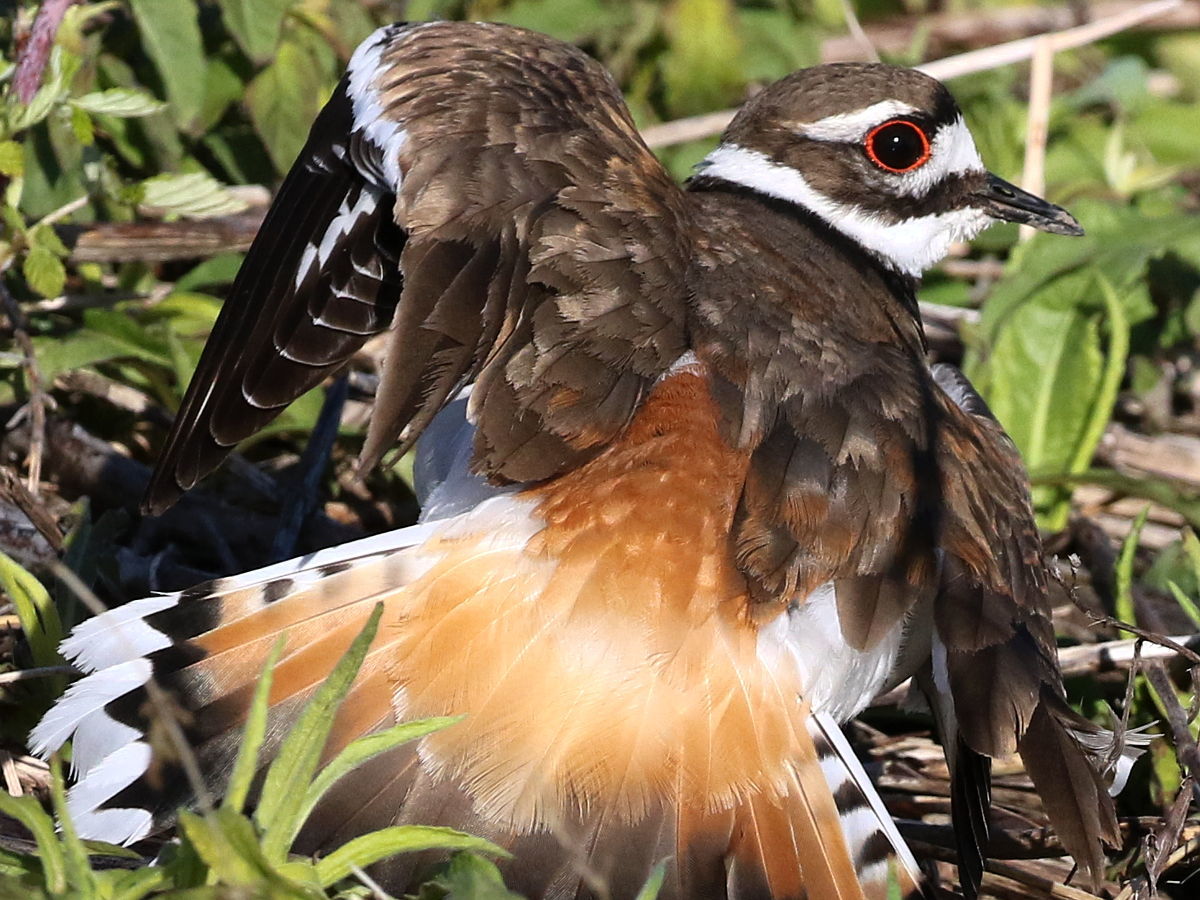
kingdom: Animalia
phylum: Chordata
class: Aves
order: Charadriiformes
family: Charadriidae
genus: Charadrius
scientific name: Charadrius vociferus
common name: Killdeer
